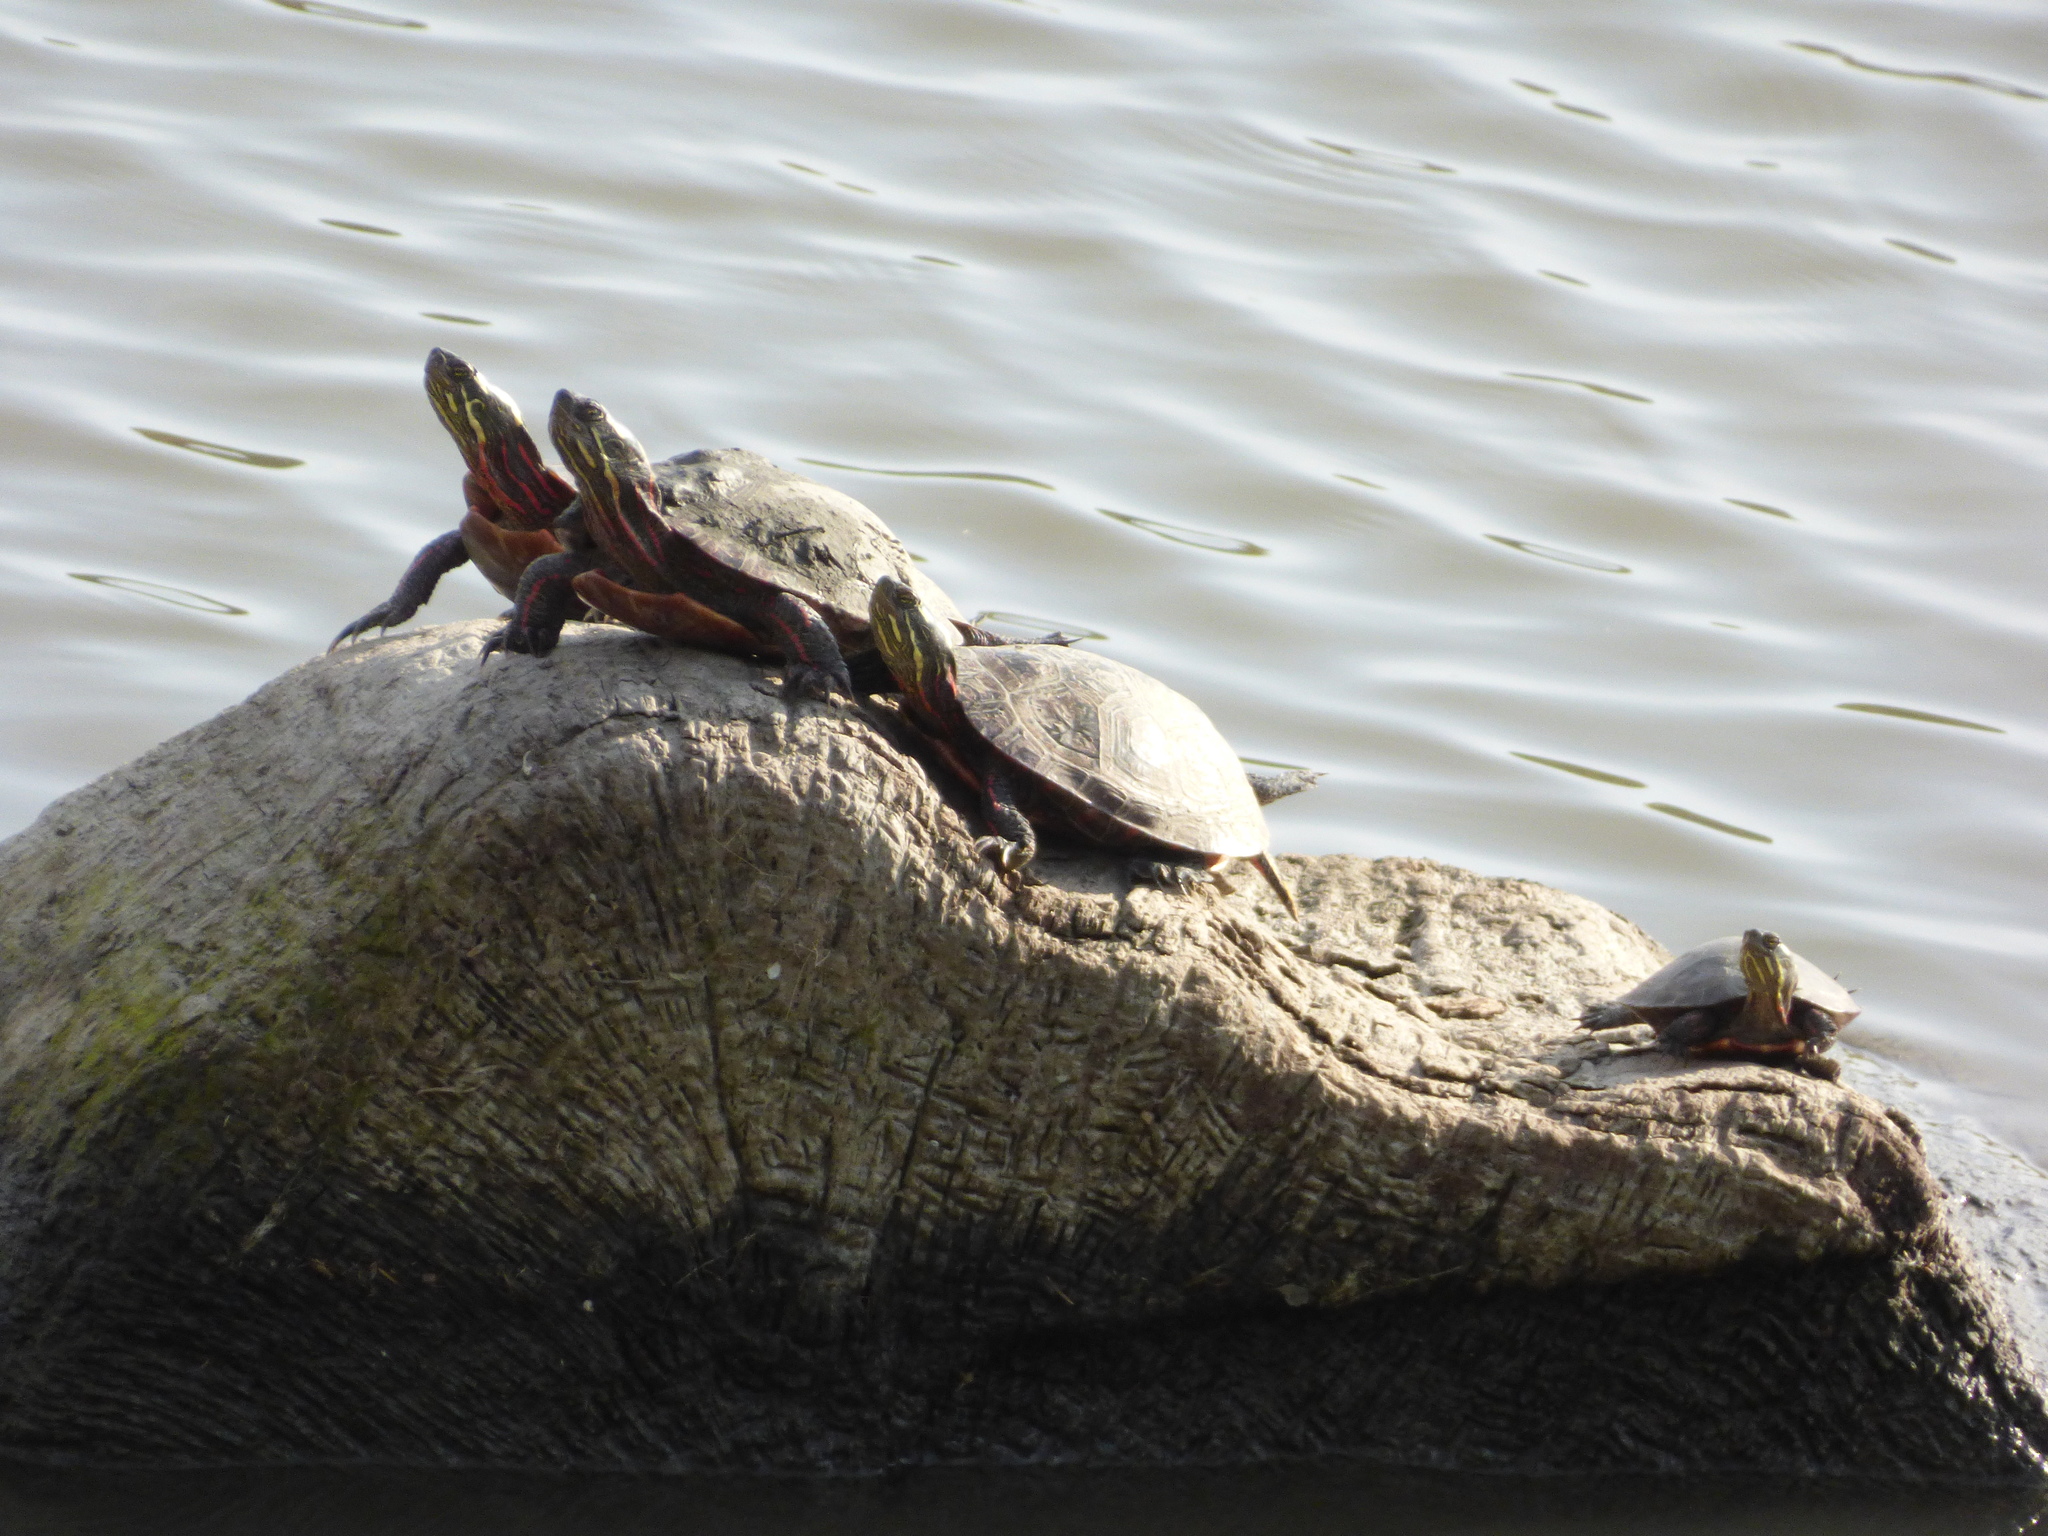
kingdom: Animalia
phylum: Chordata
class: Testudines
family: Emydidae
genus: Chrysemys
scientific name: Chrysemys picta
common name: Painted turtle
